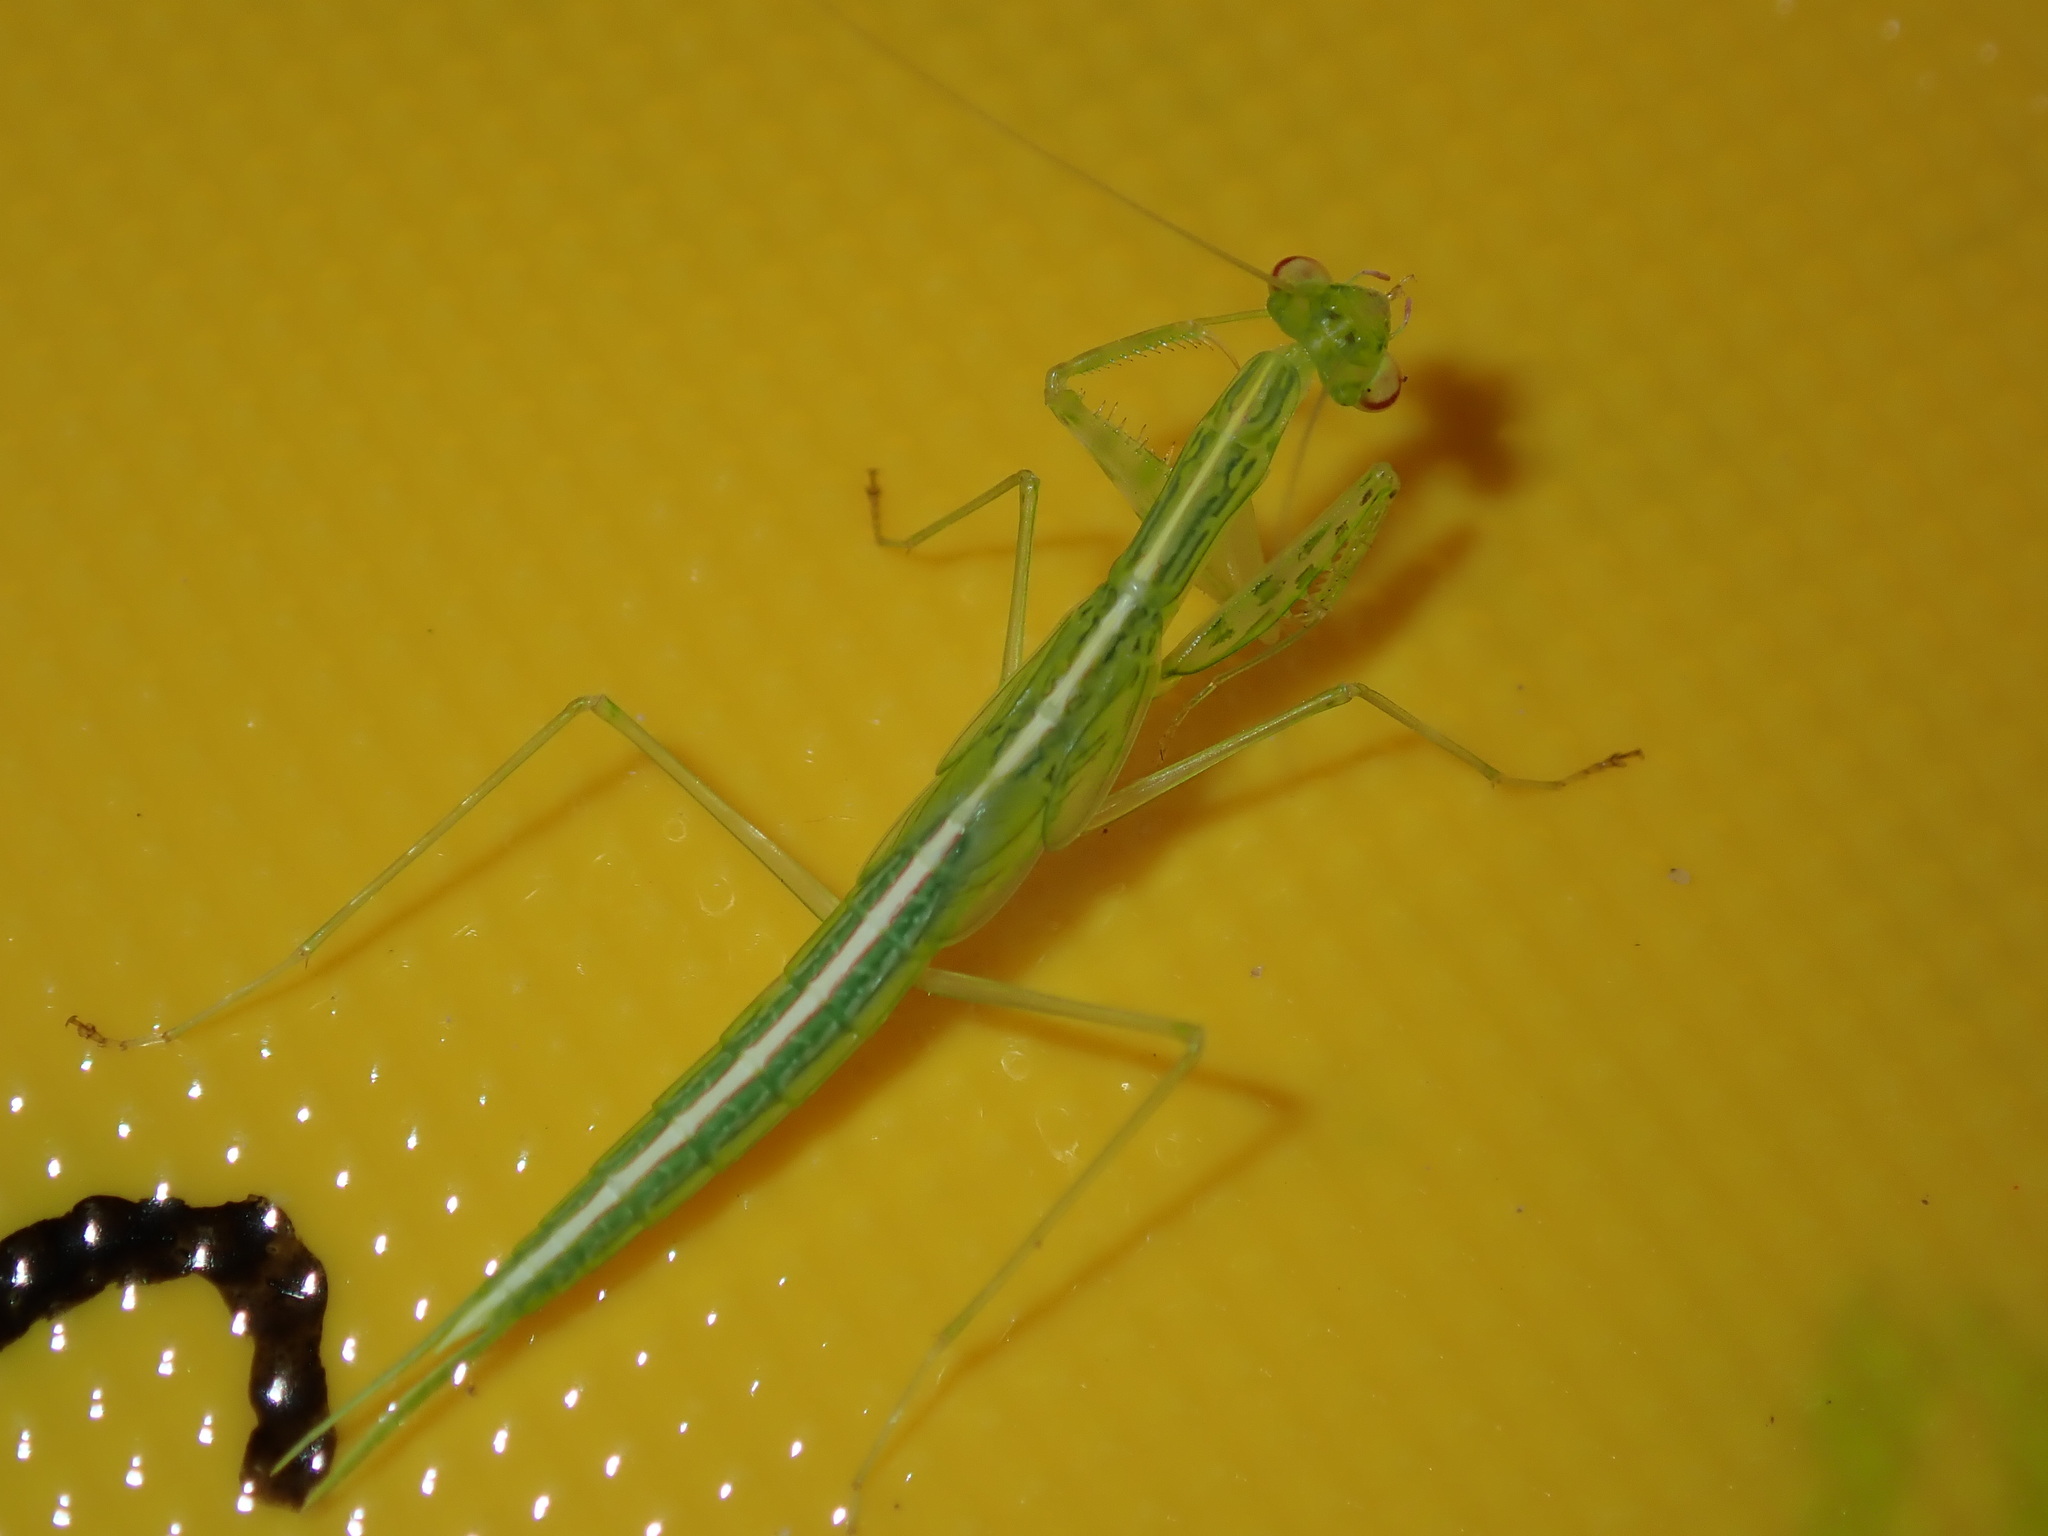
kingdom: Animalia
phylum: Arthropoda
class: Insecta
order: Mantodea
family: Nanomantidae
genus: Kongobatha
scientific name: Kongobatha diademata
